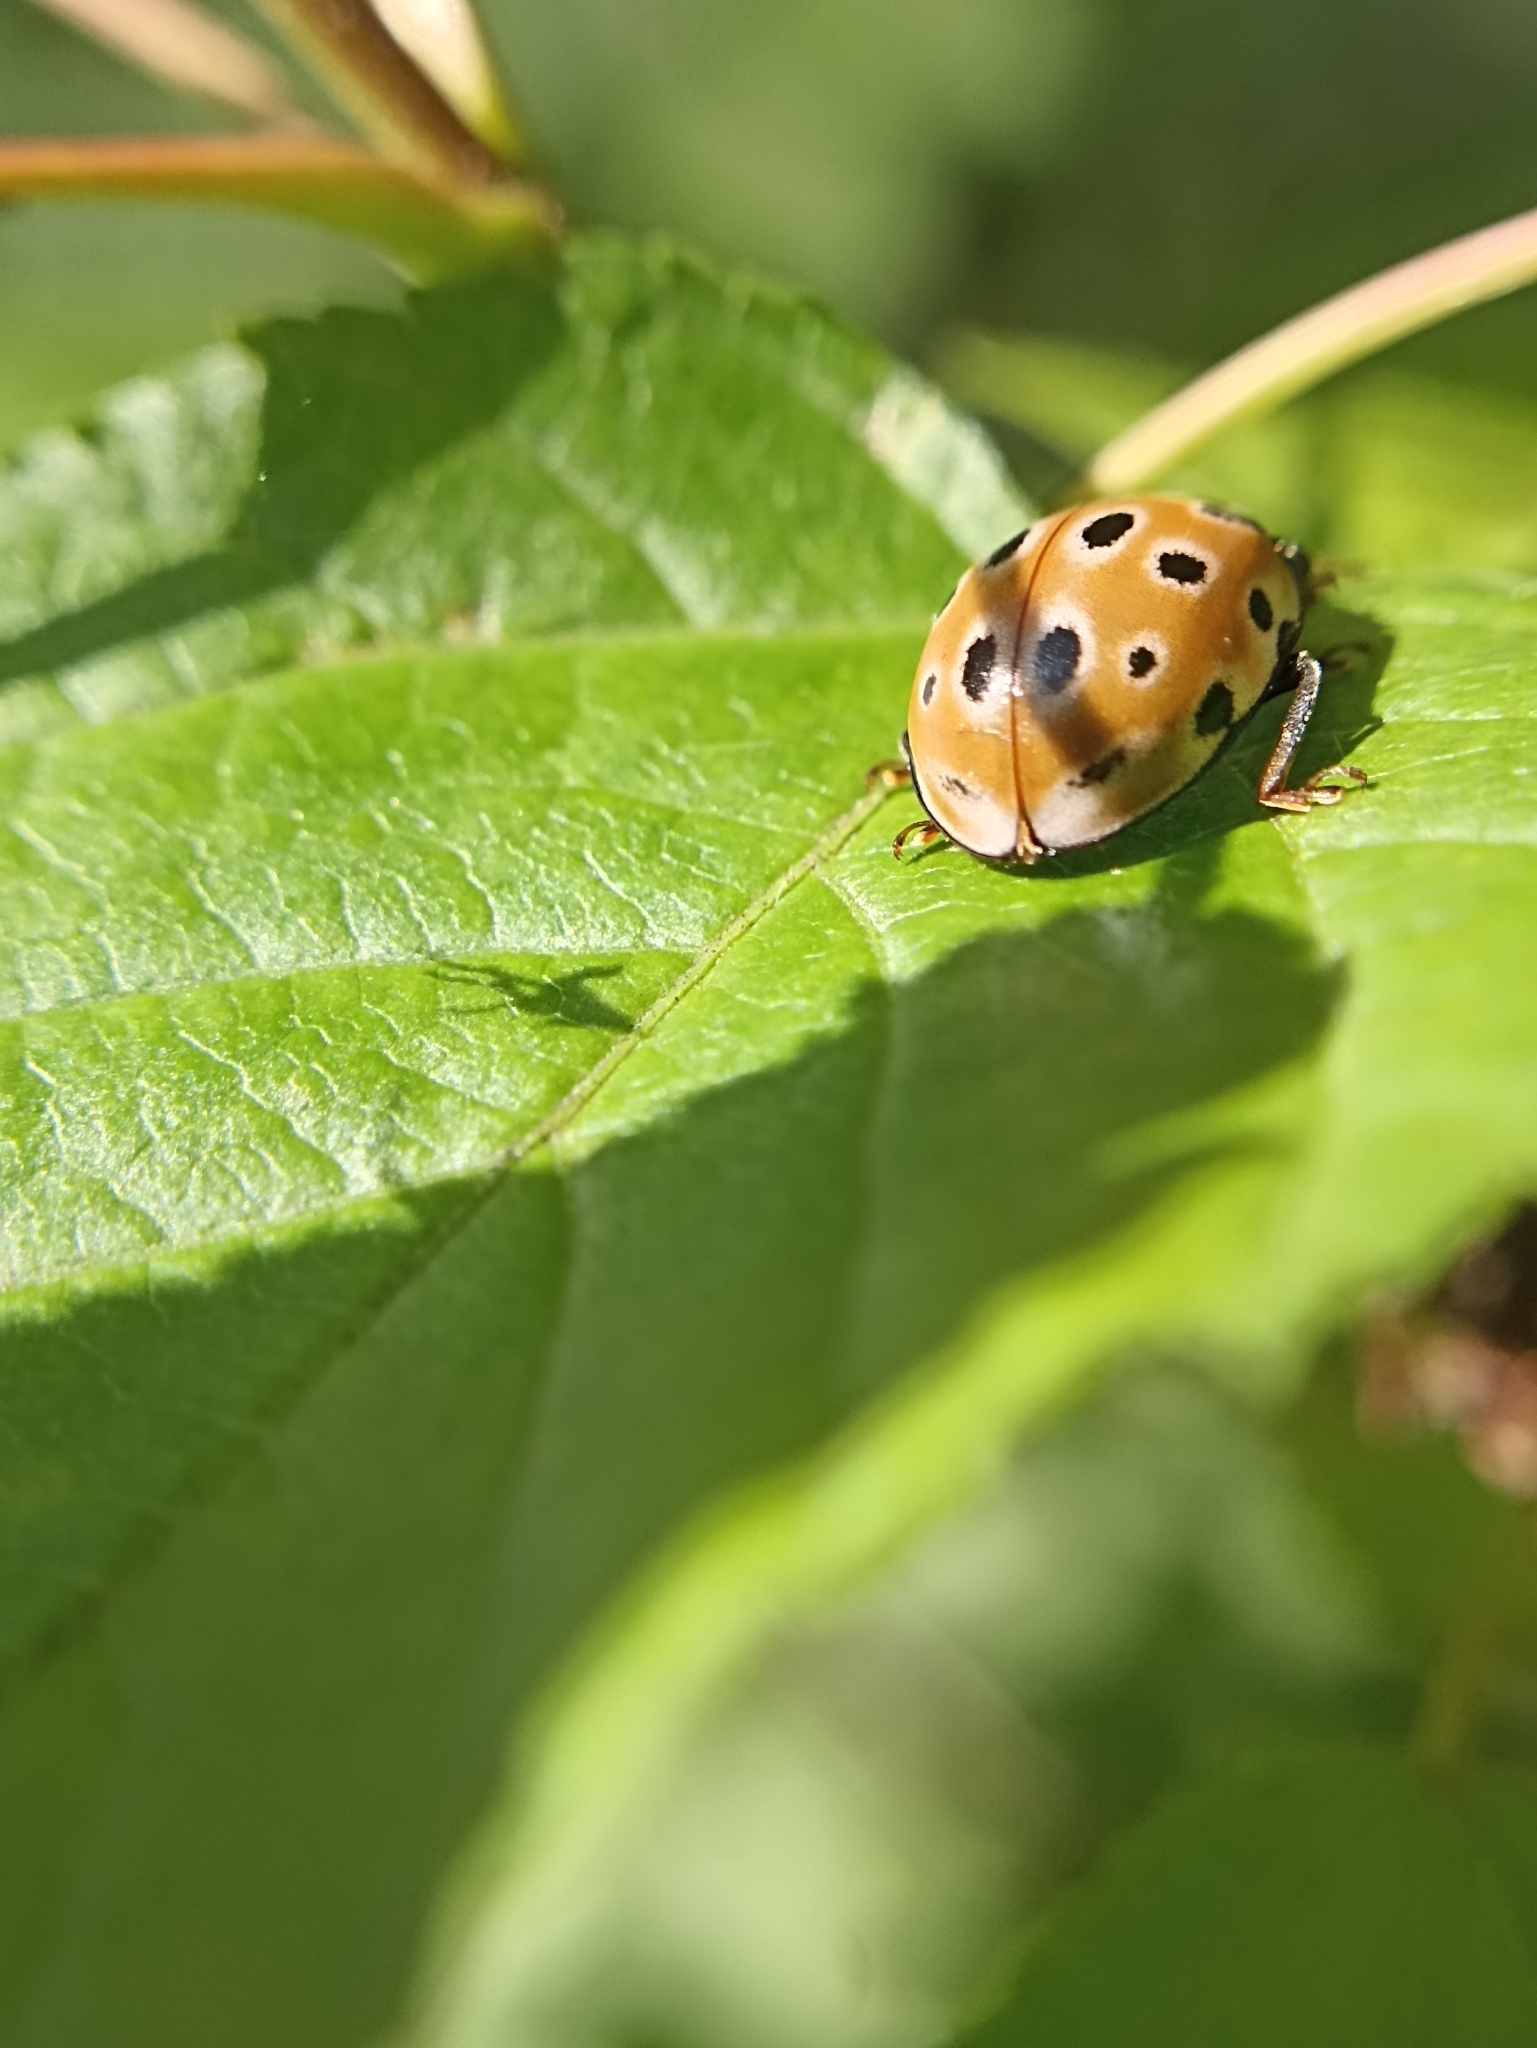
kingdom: Animalia
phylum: Arthropoda
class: Insecta
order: Coleoptera
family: Coccinellidae
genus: Anatis
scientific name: Anatis ocellata
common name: Eyed ladybird
